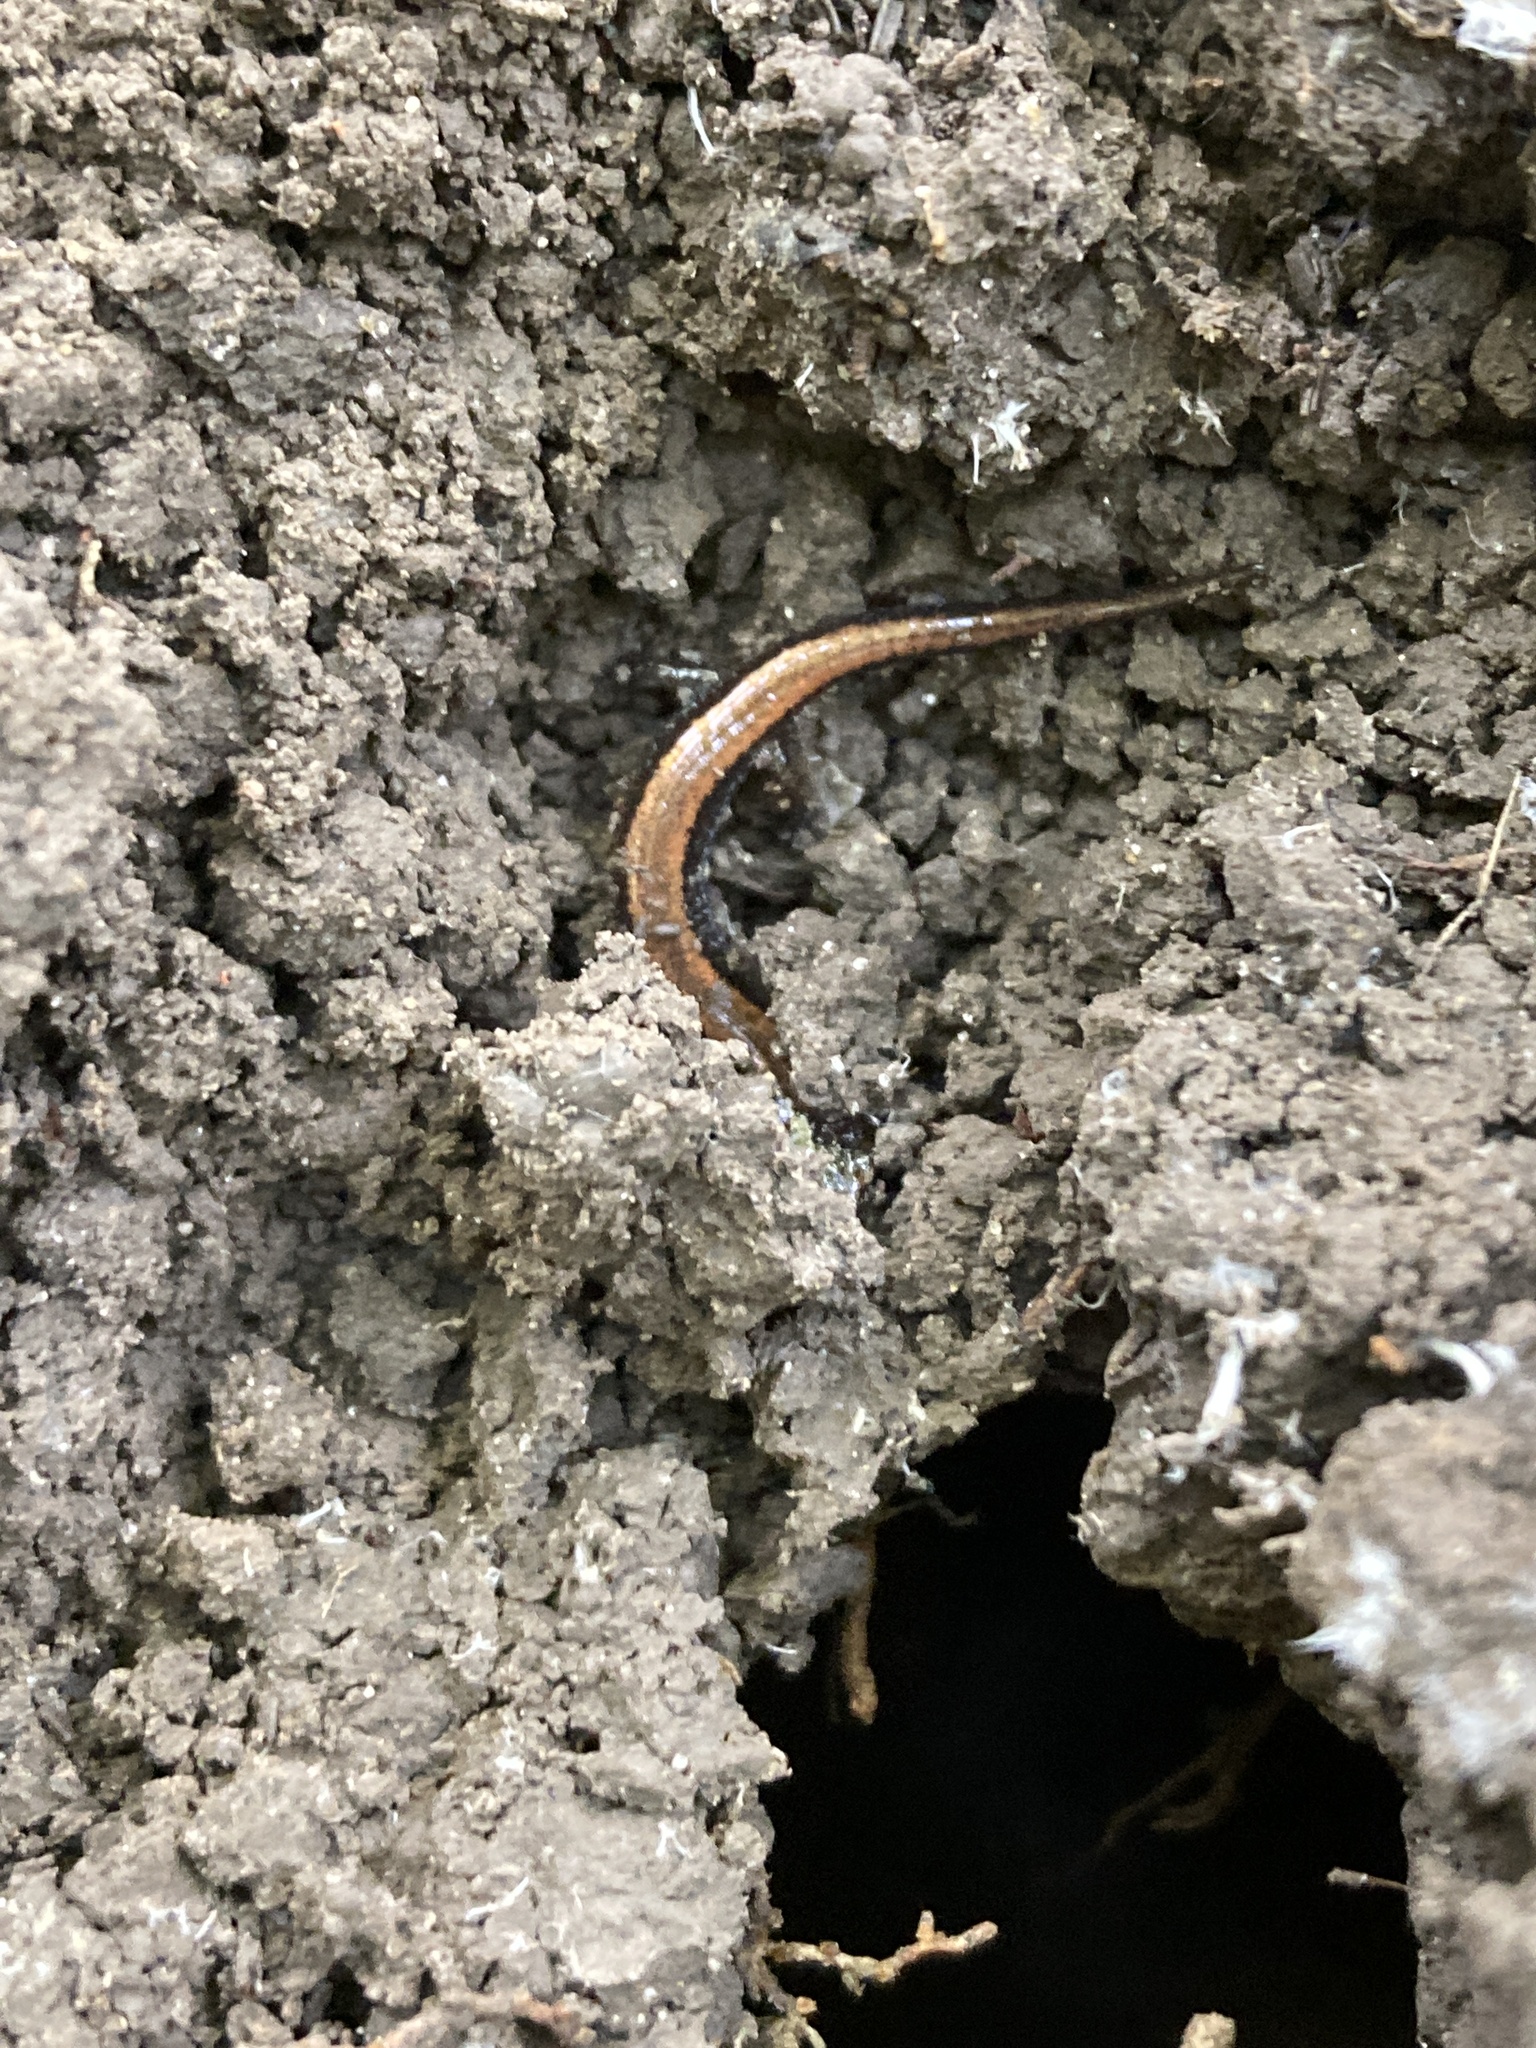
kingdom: Animalia
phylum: Chordata
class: Amphibia
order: Caudata
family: Plethodontidae
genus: Plethodon
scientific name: Plethodon cinereus
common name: Redback salamander
